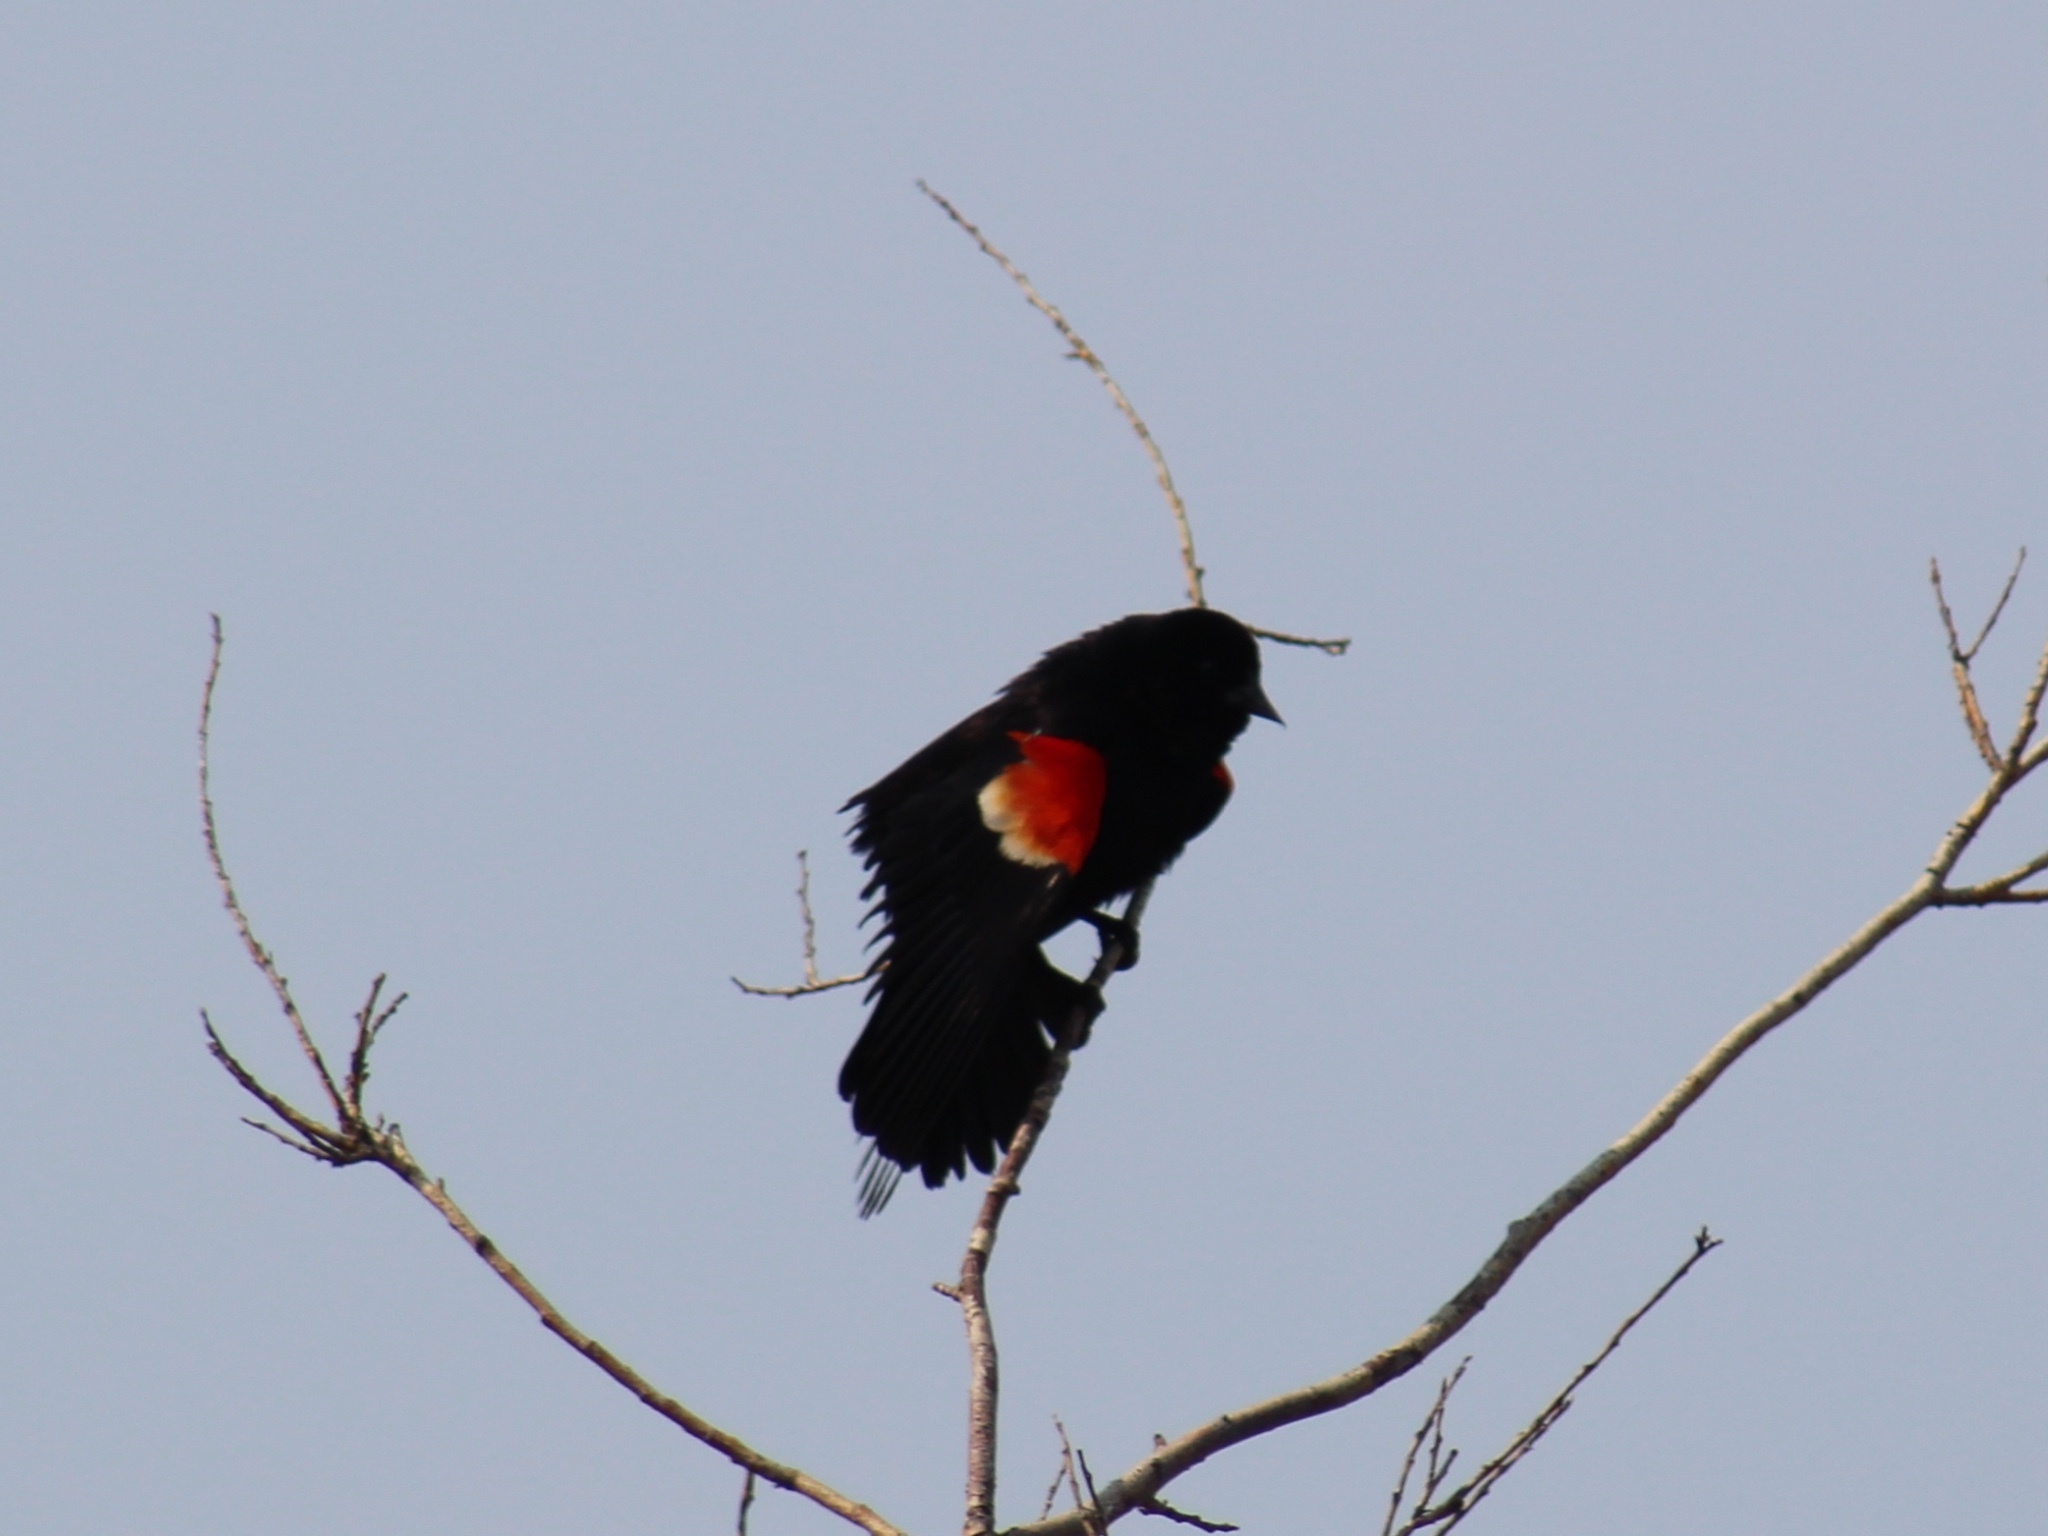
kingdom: Animalia
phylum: Chordata
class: Aves
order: Passeriformes
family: Icteridae
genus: Agelaius
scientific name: Agelaius phoeniceus
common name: Red-winged blackbird
